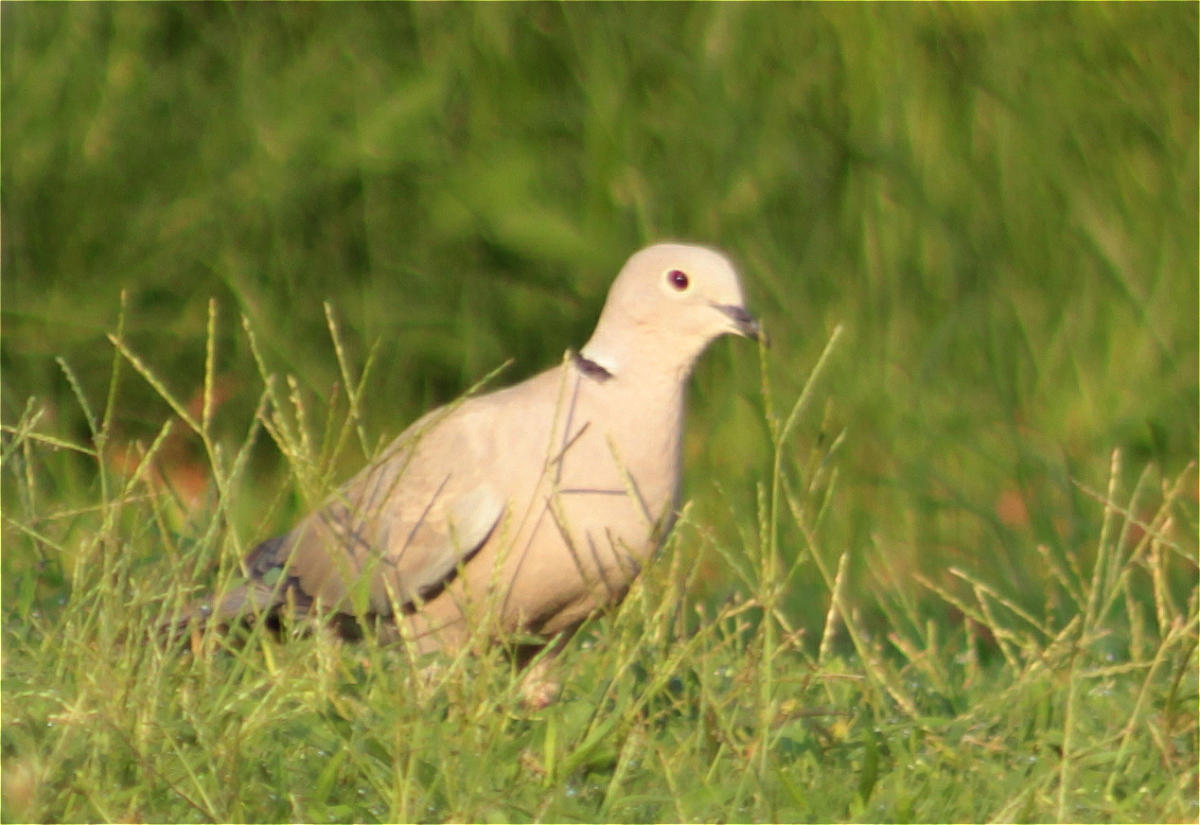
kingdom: Animalia
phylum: Chordata
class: Aves
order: Columbiformes
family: Columbidae
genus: Streptopelia
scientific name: Streptopelia decaocto
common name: Eurasian collared dove
